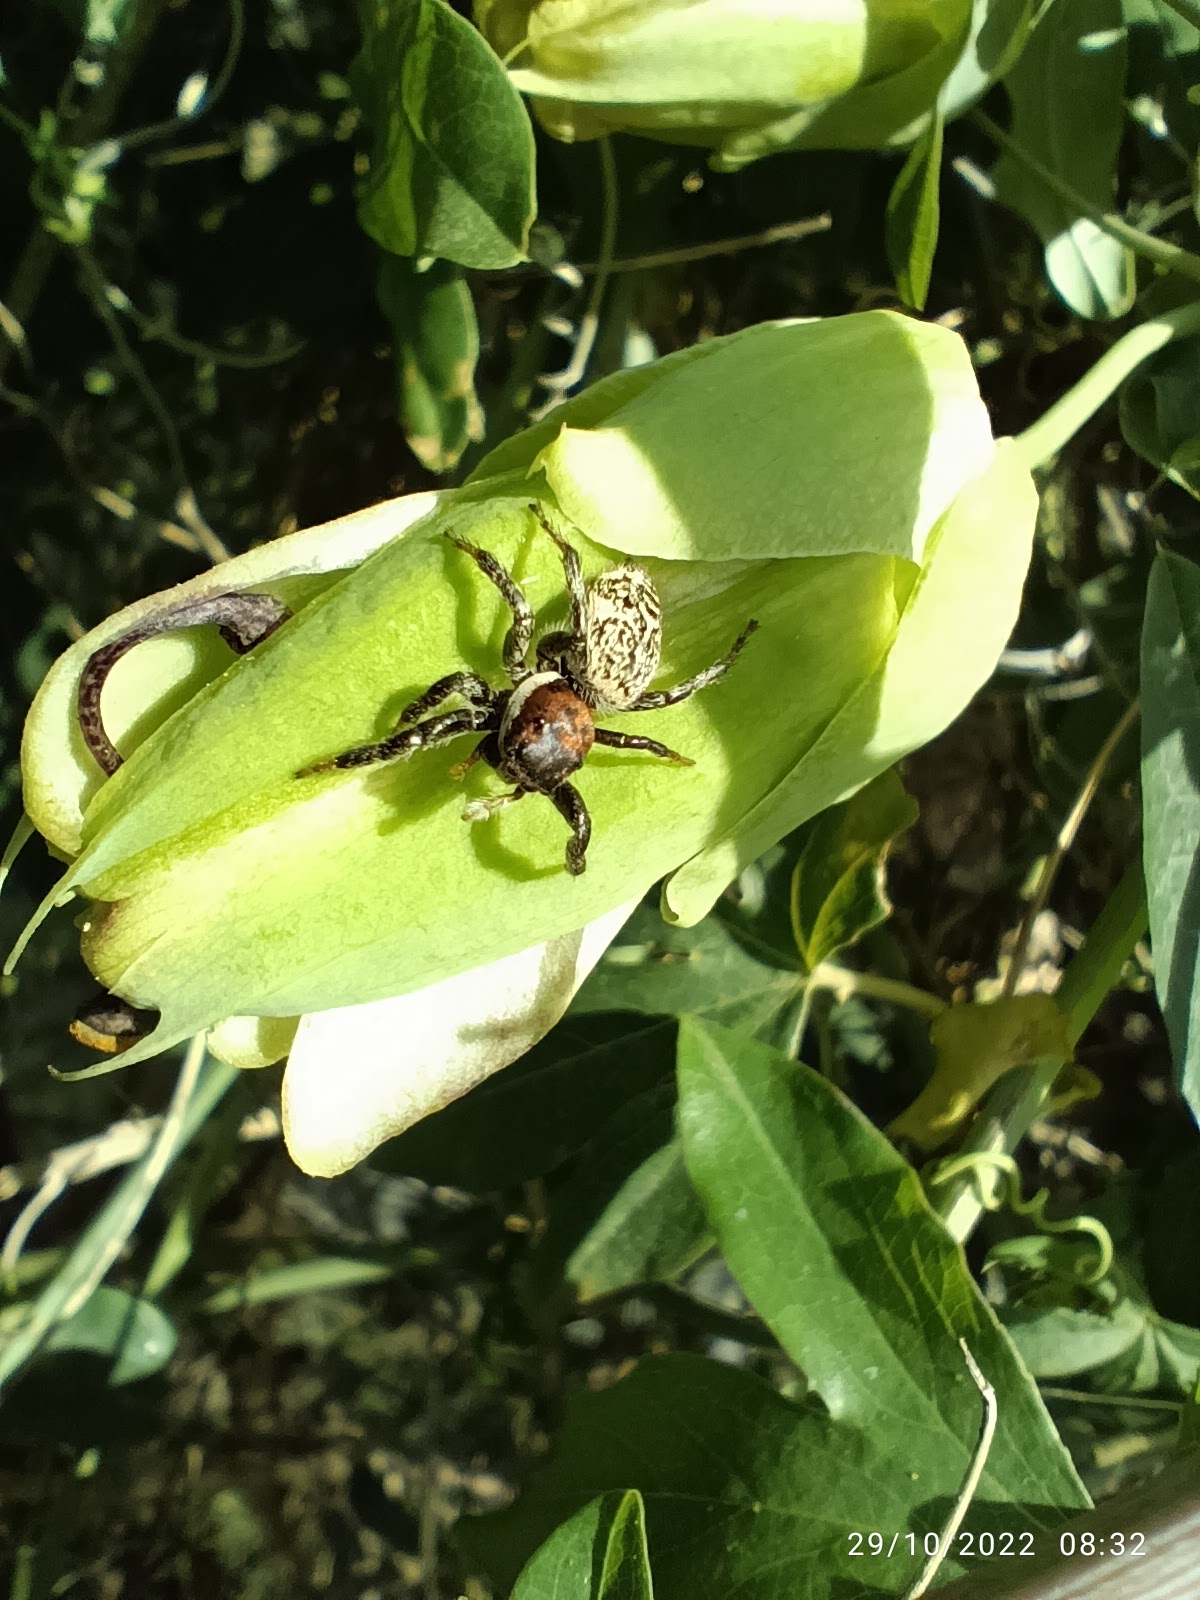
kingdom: Animalia
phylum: Arthropoda
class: Arachnida
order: Araneae
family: Salticidae
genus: Phiale
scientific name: Phiale roburifoliata
